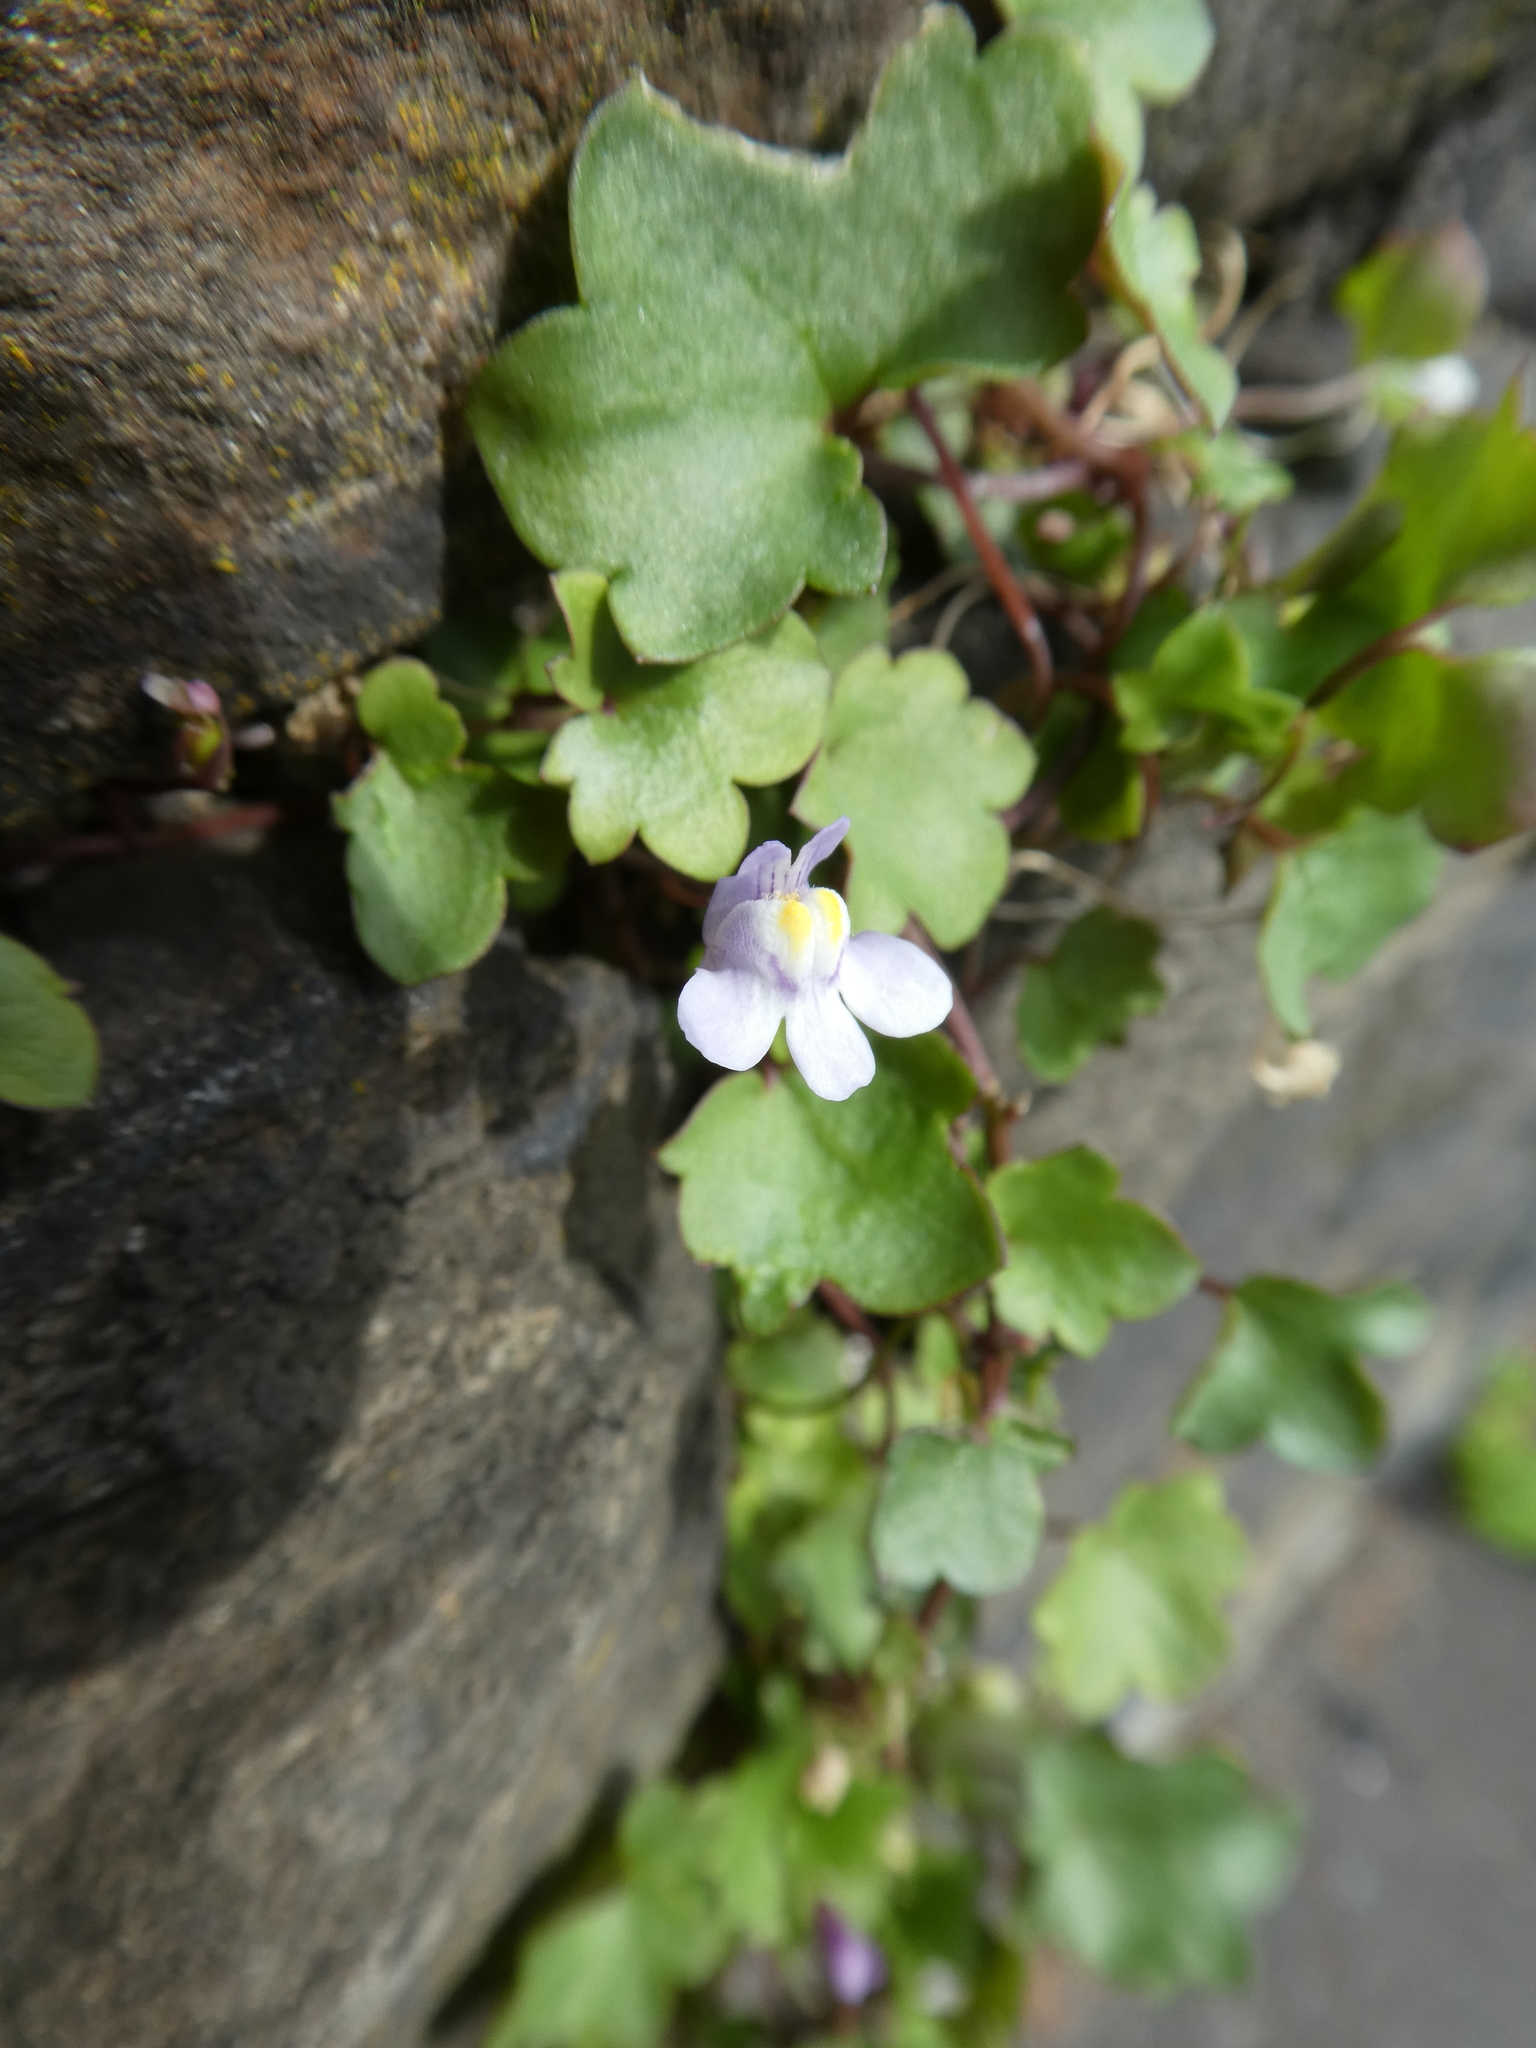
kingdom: Plantae
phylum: Tracheophyta
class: Magnoliopsida
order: Lamiales
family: Plantaginaceae
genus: Cymbalaria
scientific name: Cymbalaria muralis
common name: Ivy-leaved toadflax
